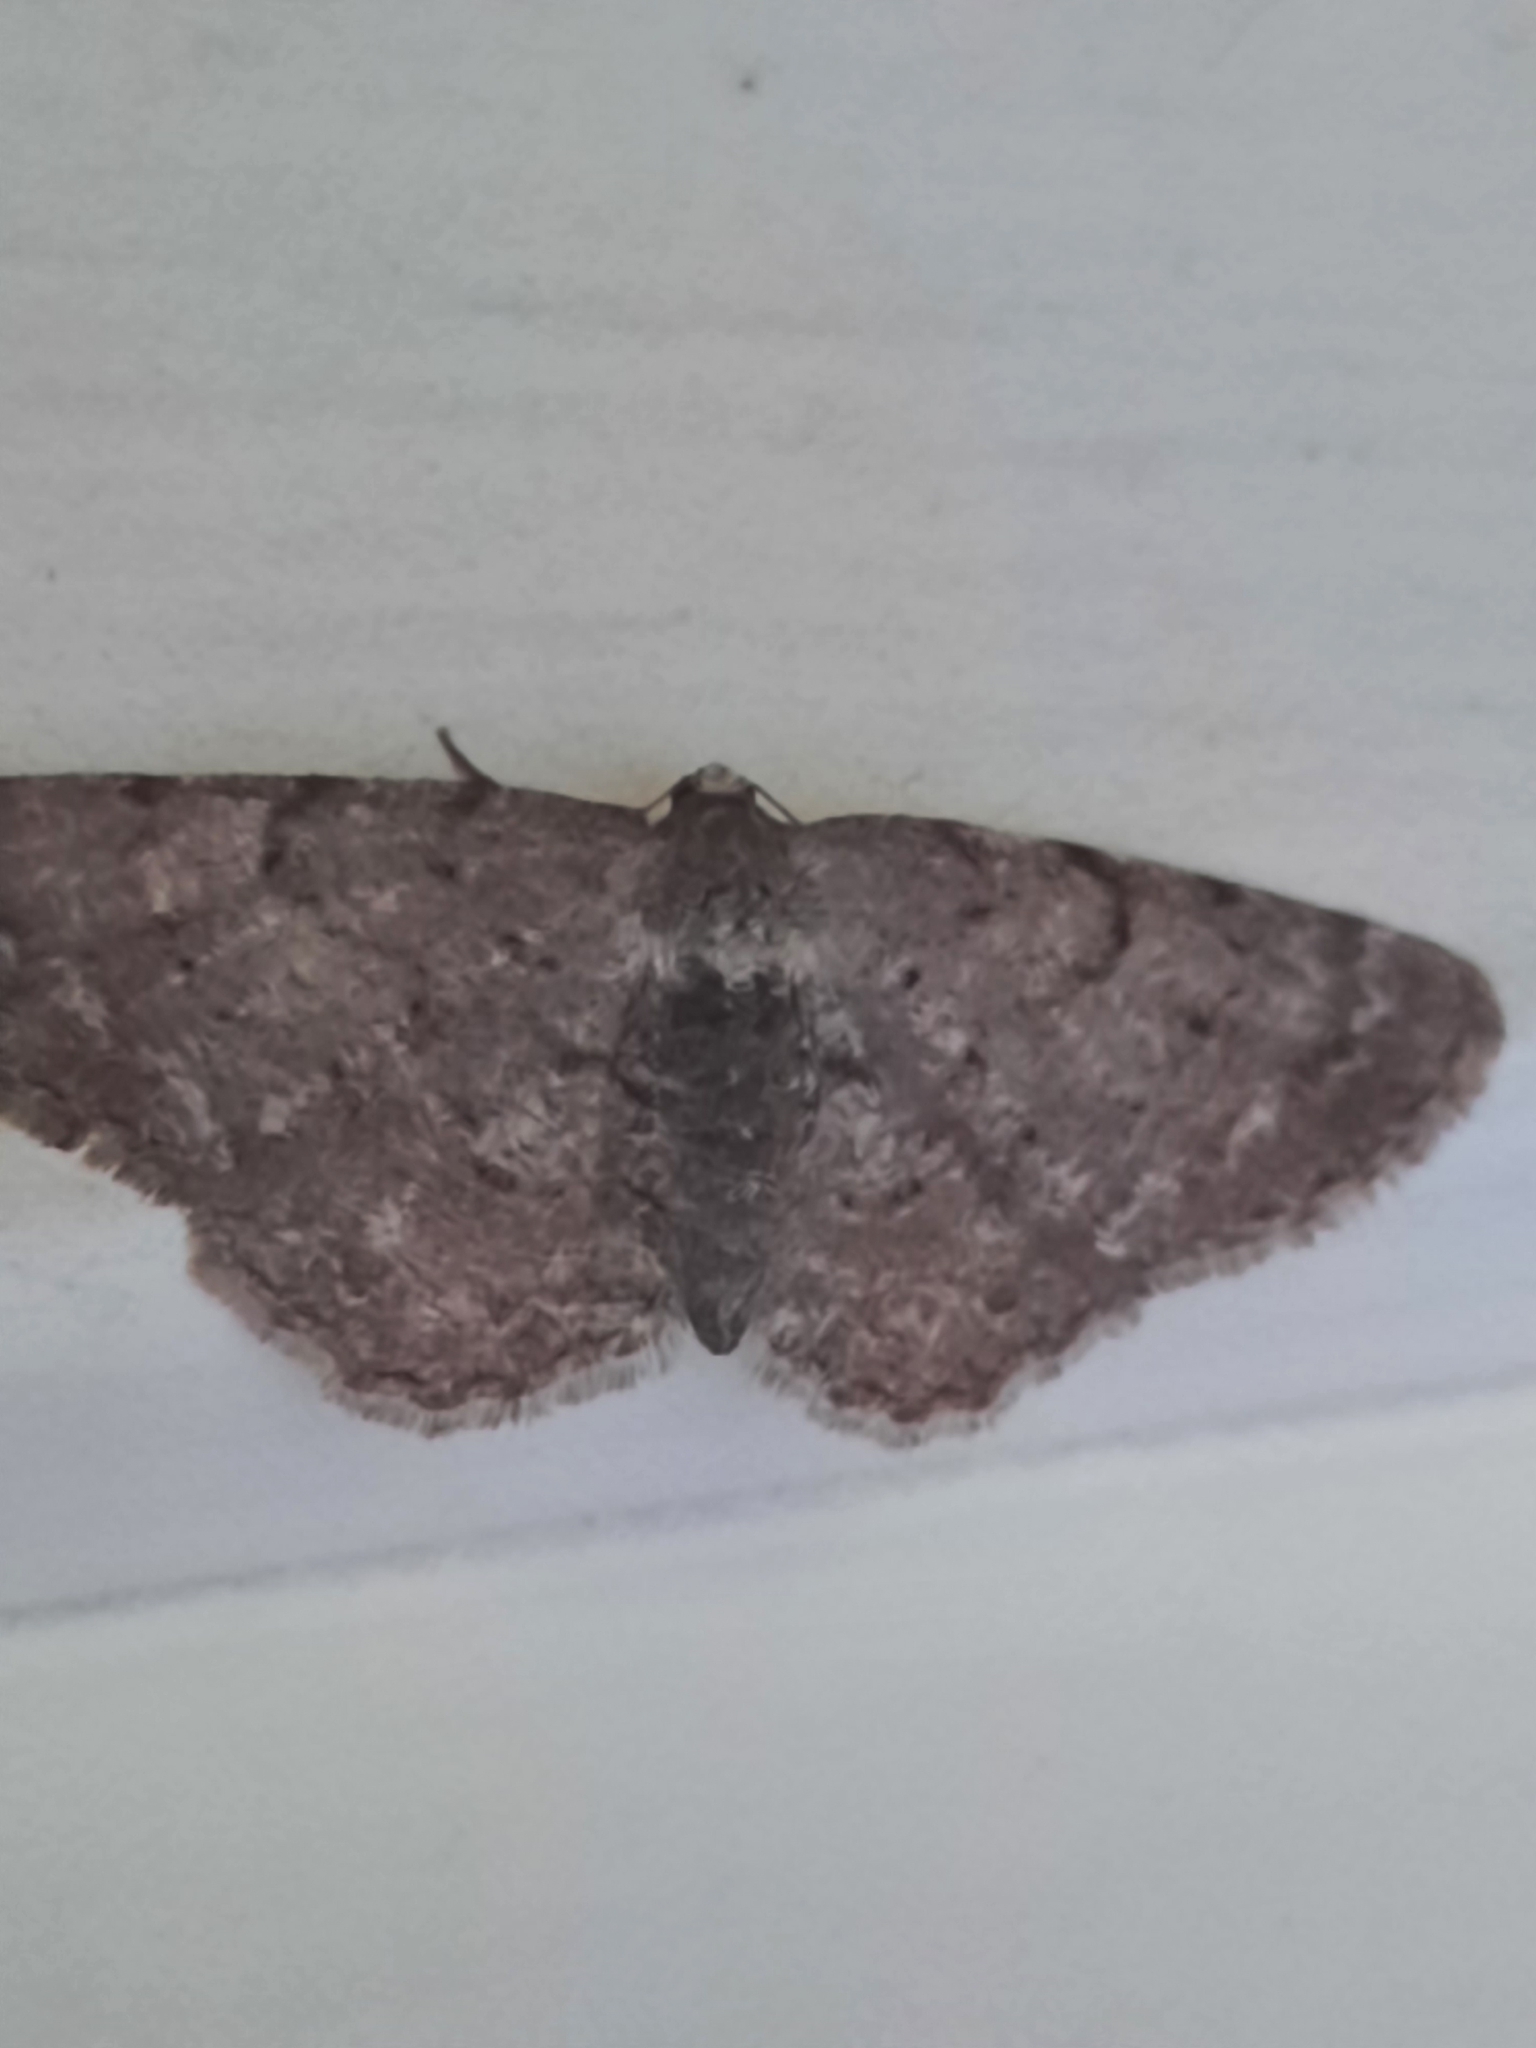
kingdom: Animalia
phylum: Arthropoda
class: Insecta
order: Lepidoptera
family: Geometridae
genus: Aethalura
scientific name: Aethalura intertexta
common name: Four-barred gray
